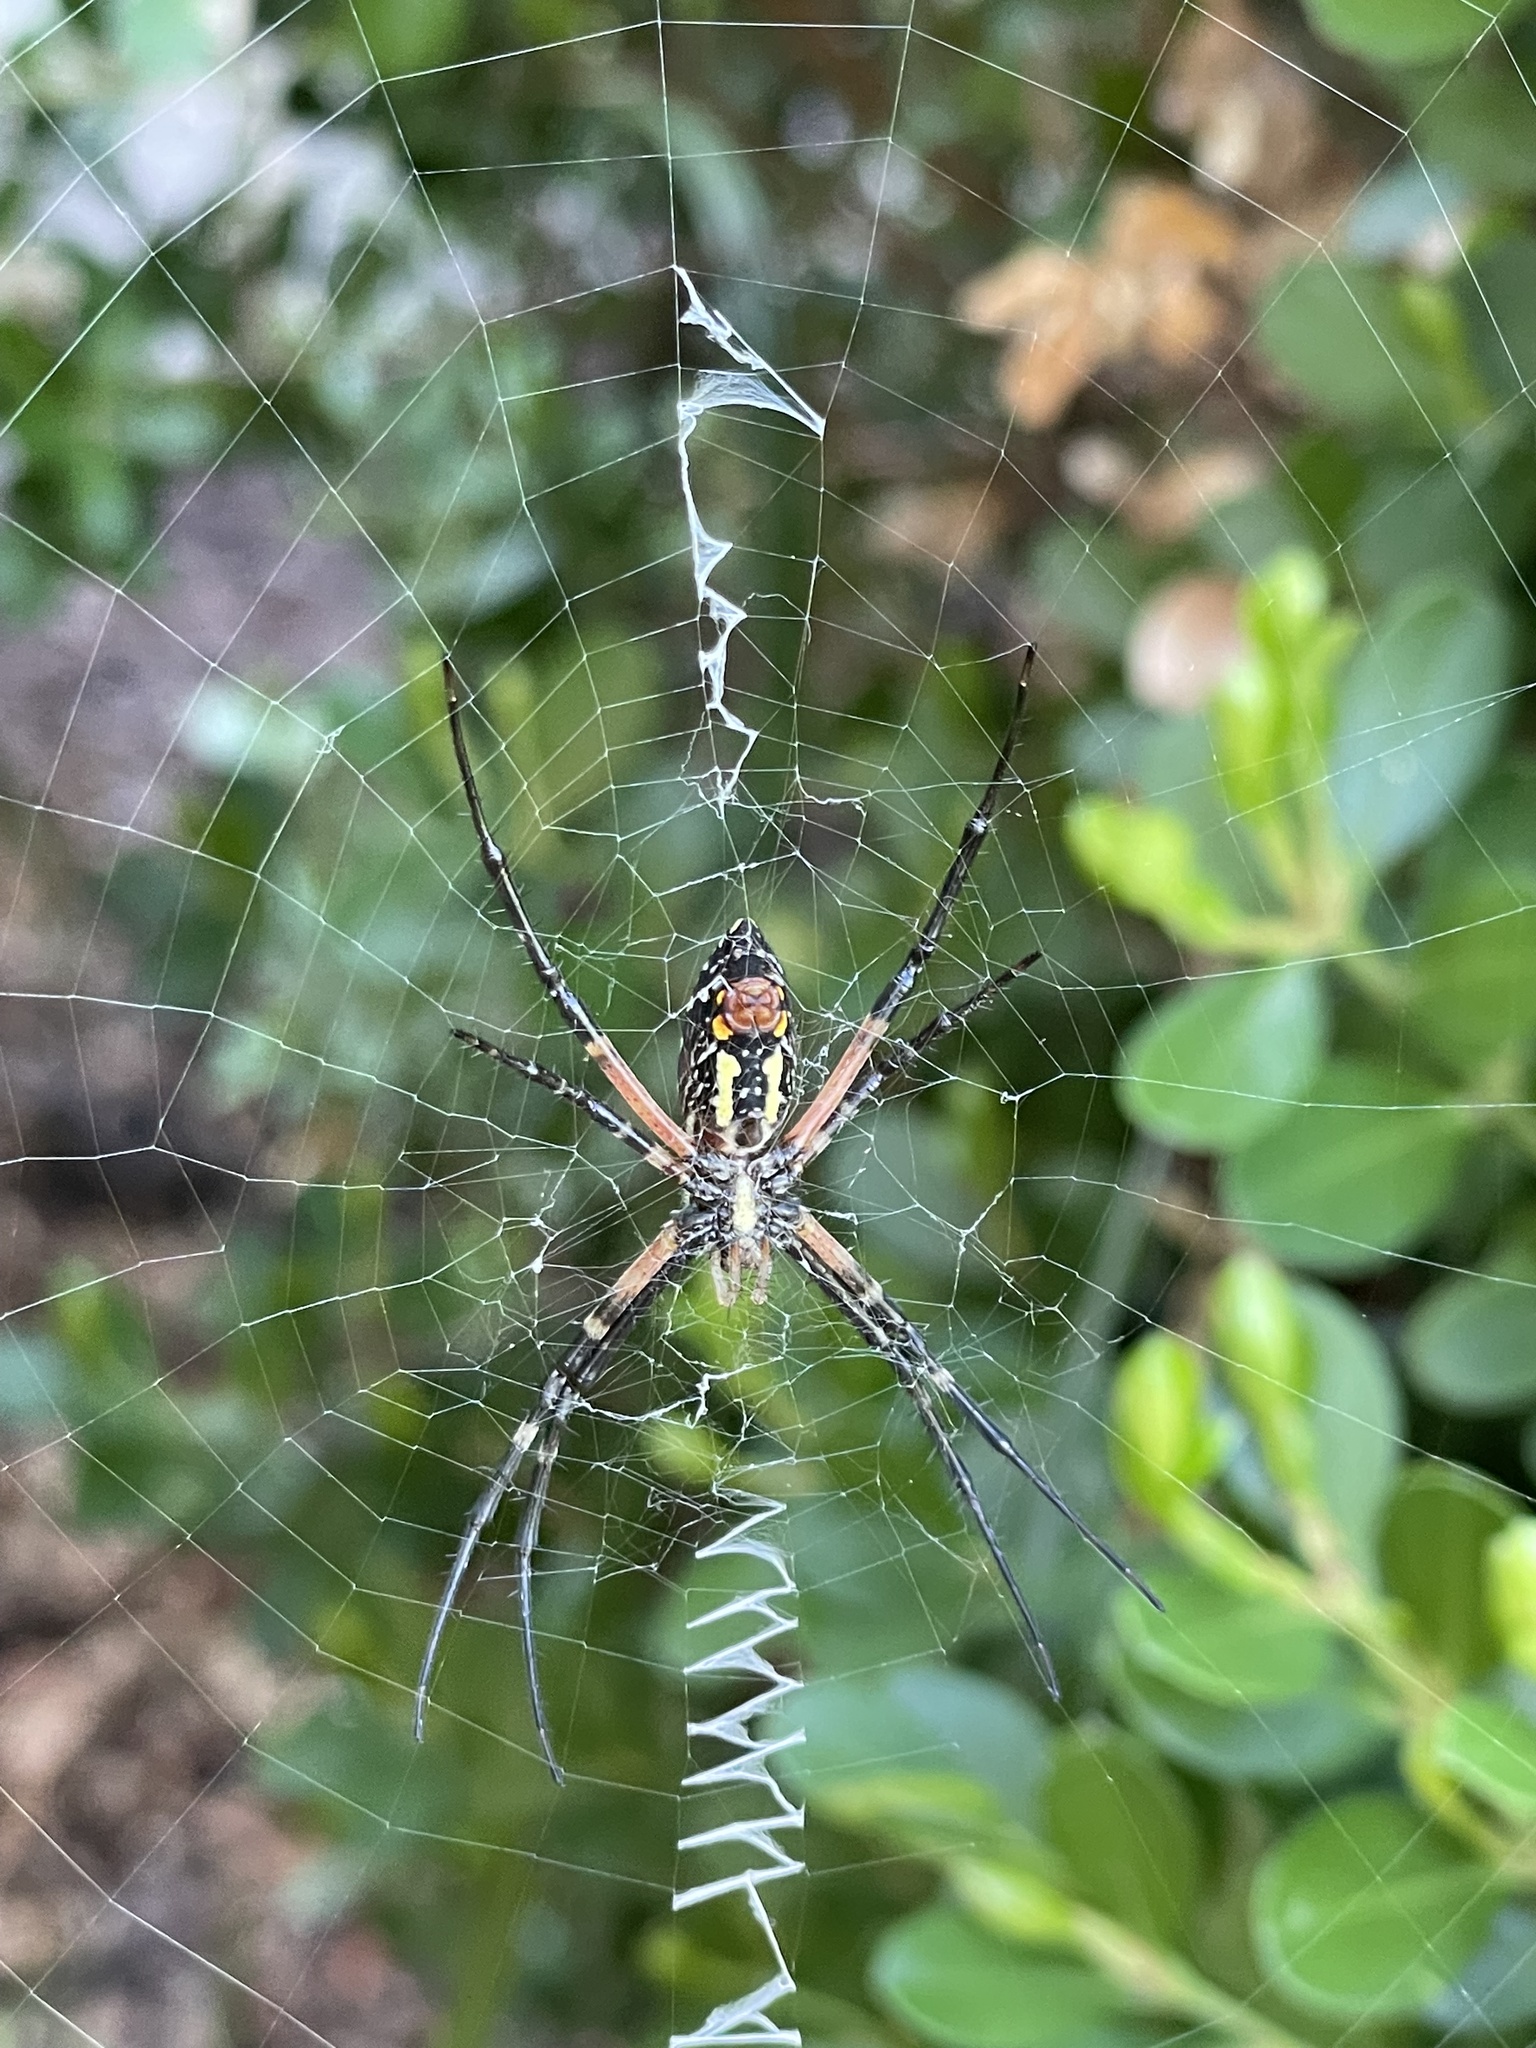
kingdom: Animalia
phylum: Arthropoda
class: Arachnida
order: Araneae
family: Araneidae
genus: Argiope
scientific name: Argiope aurantia
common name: Orb weavers
